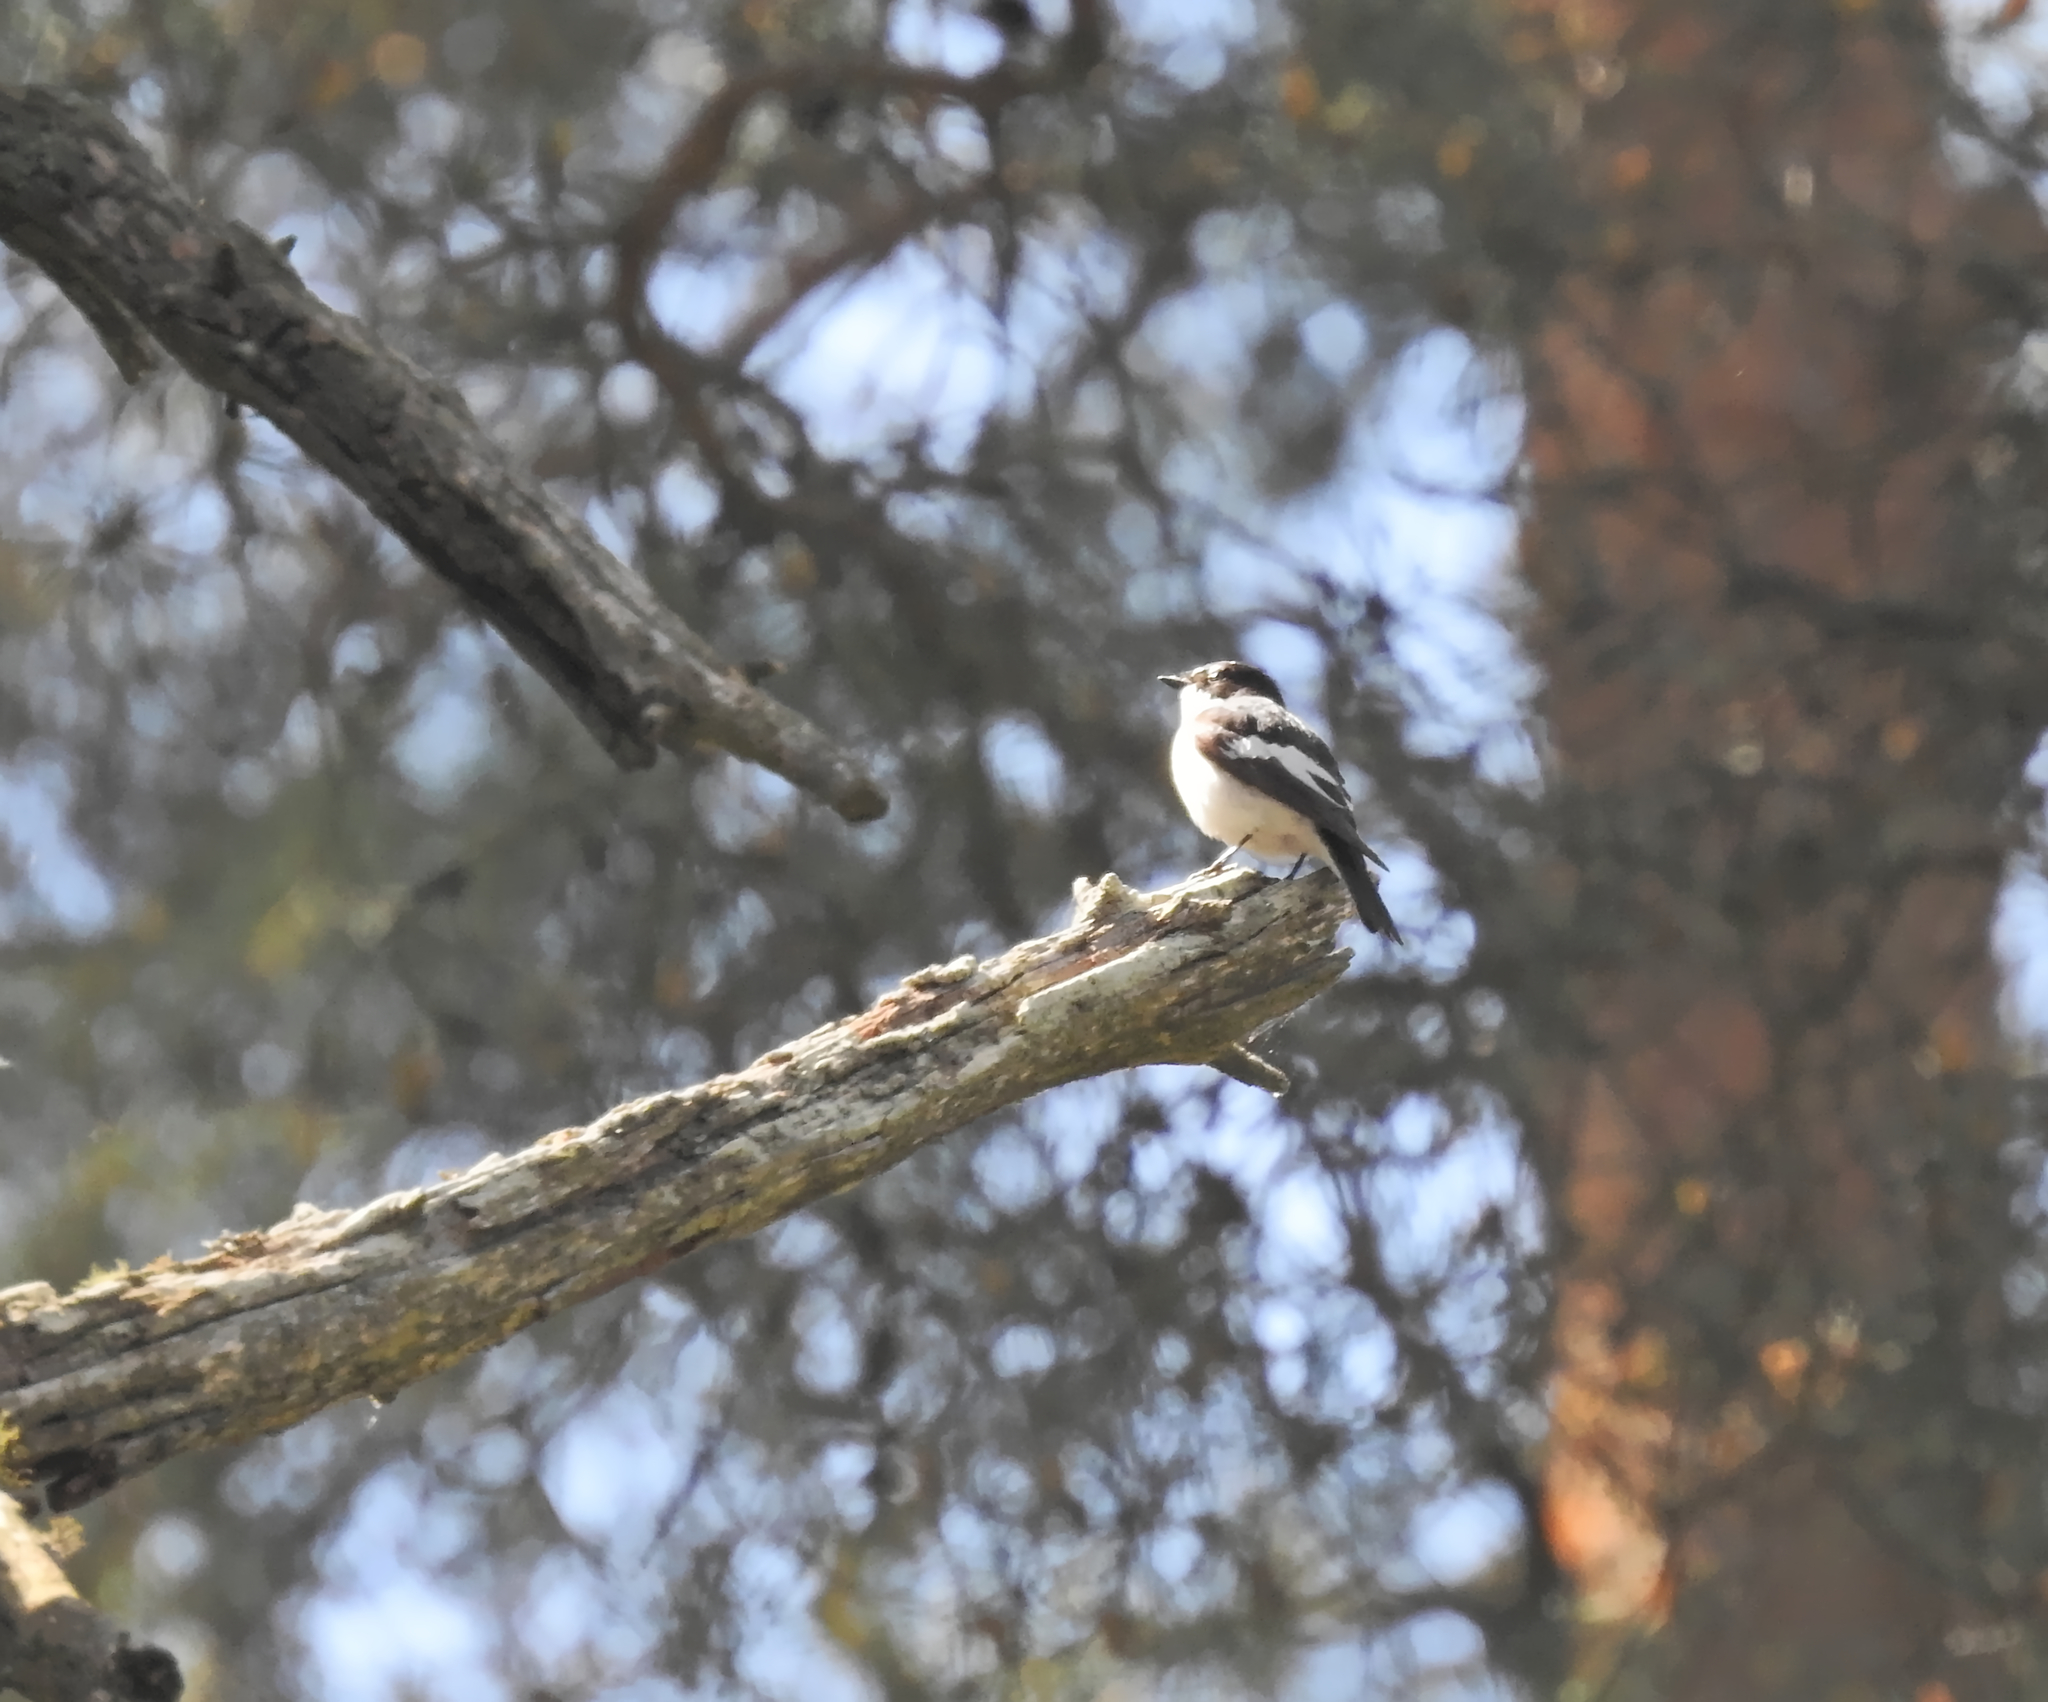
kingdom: Animalia
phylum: Chordata
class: Aves
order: Passeriformes
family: Muscicapidae
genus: Ficedula
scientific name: Ficedula hypoleuca
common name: European pied flycatcher
